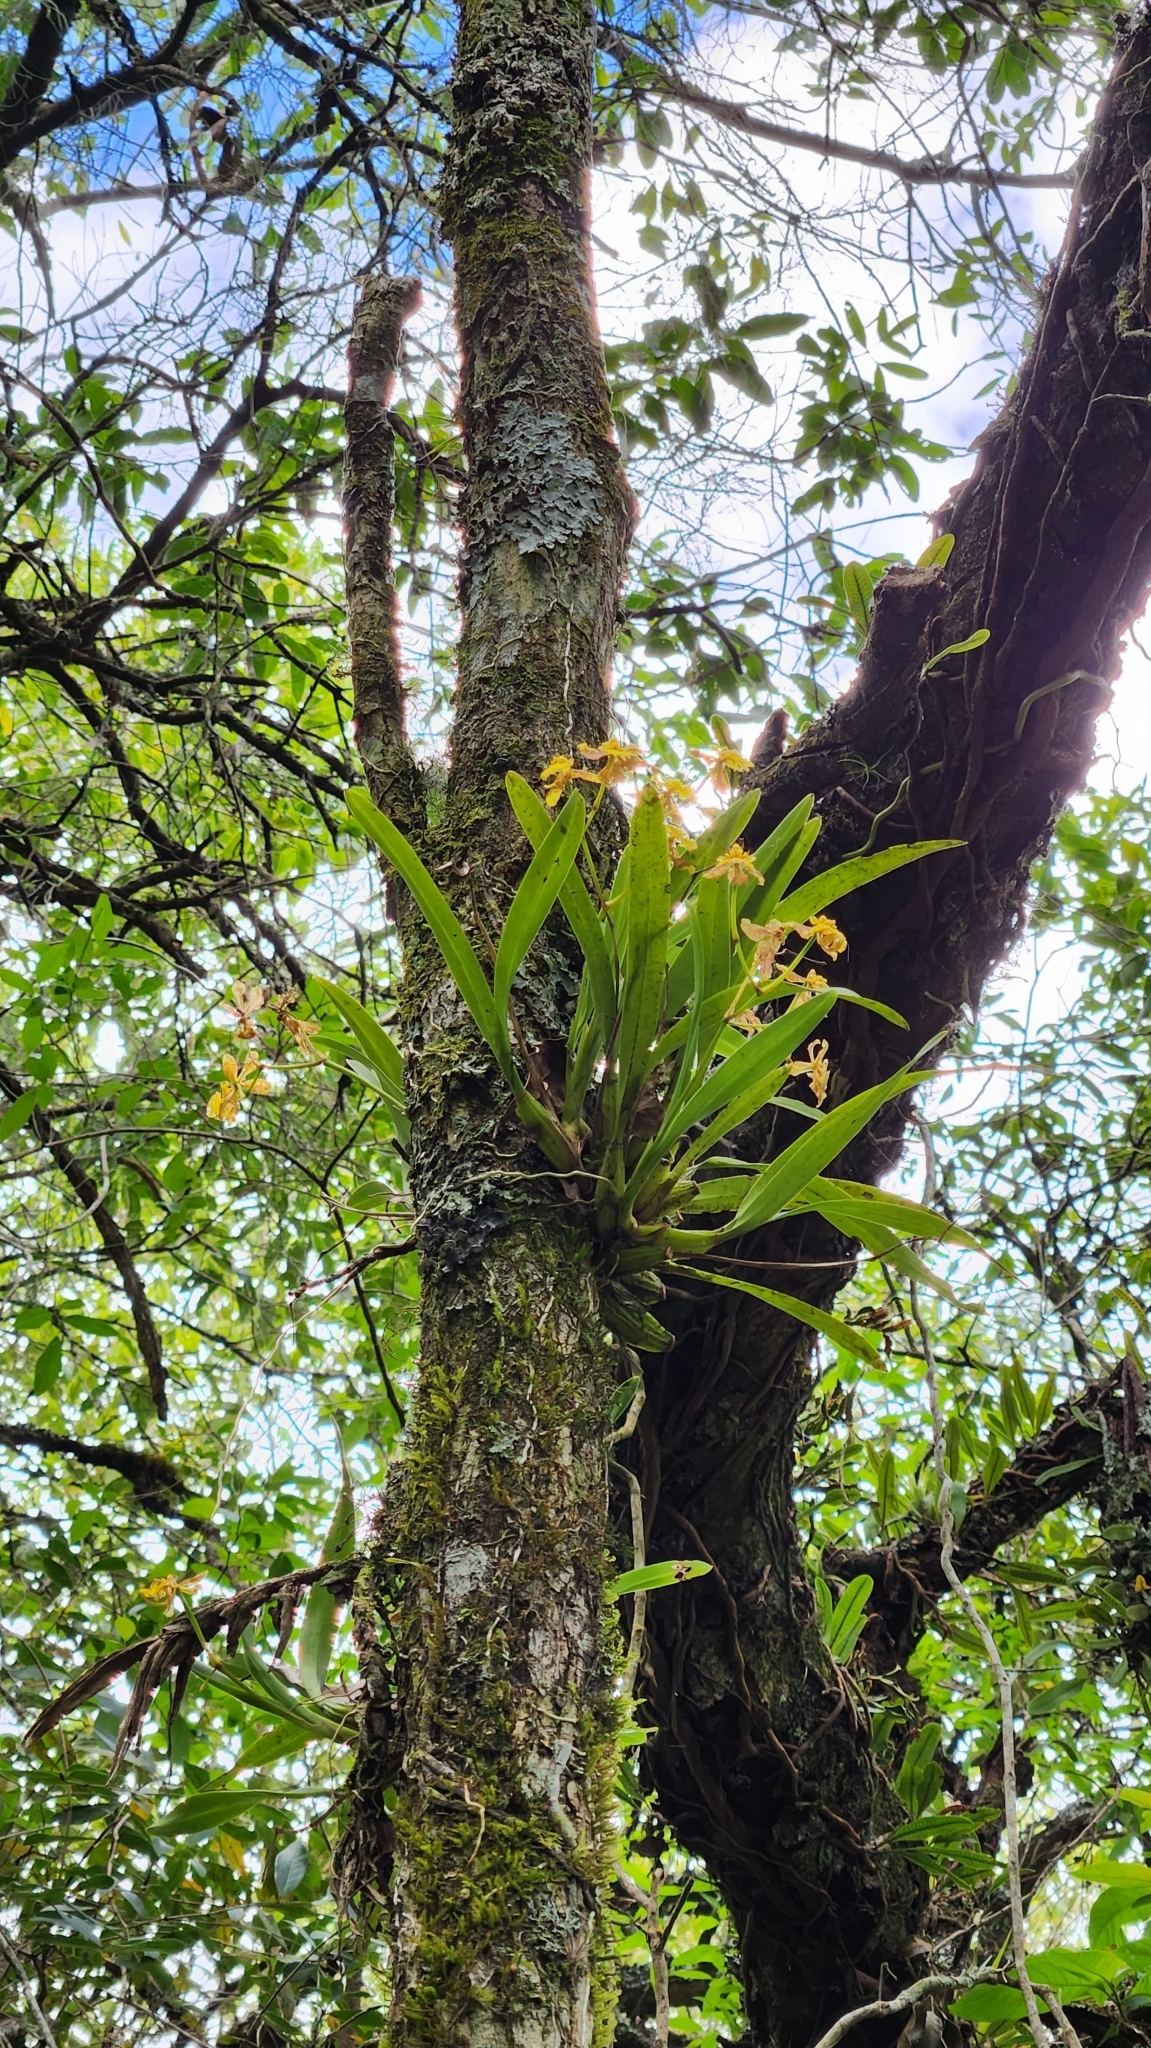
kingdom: Plantae
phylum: Tracheophyta
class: Liliopsida
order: Asparagales
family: Orchidaceae
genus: Gomesa
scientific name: Gomesa uniflora
